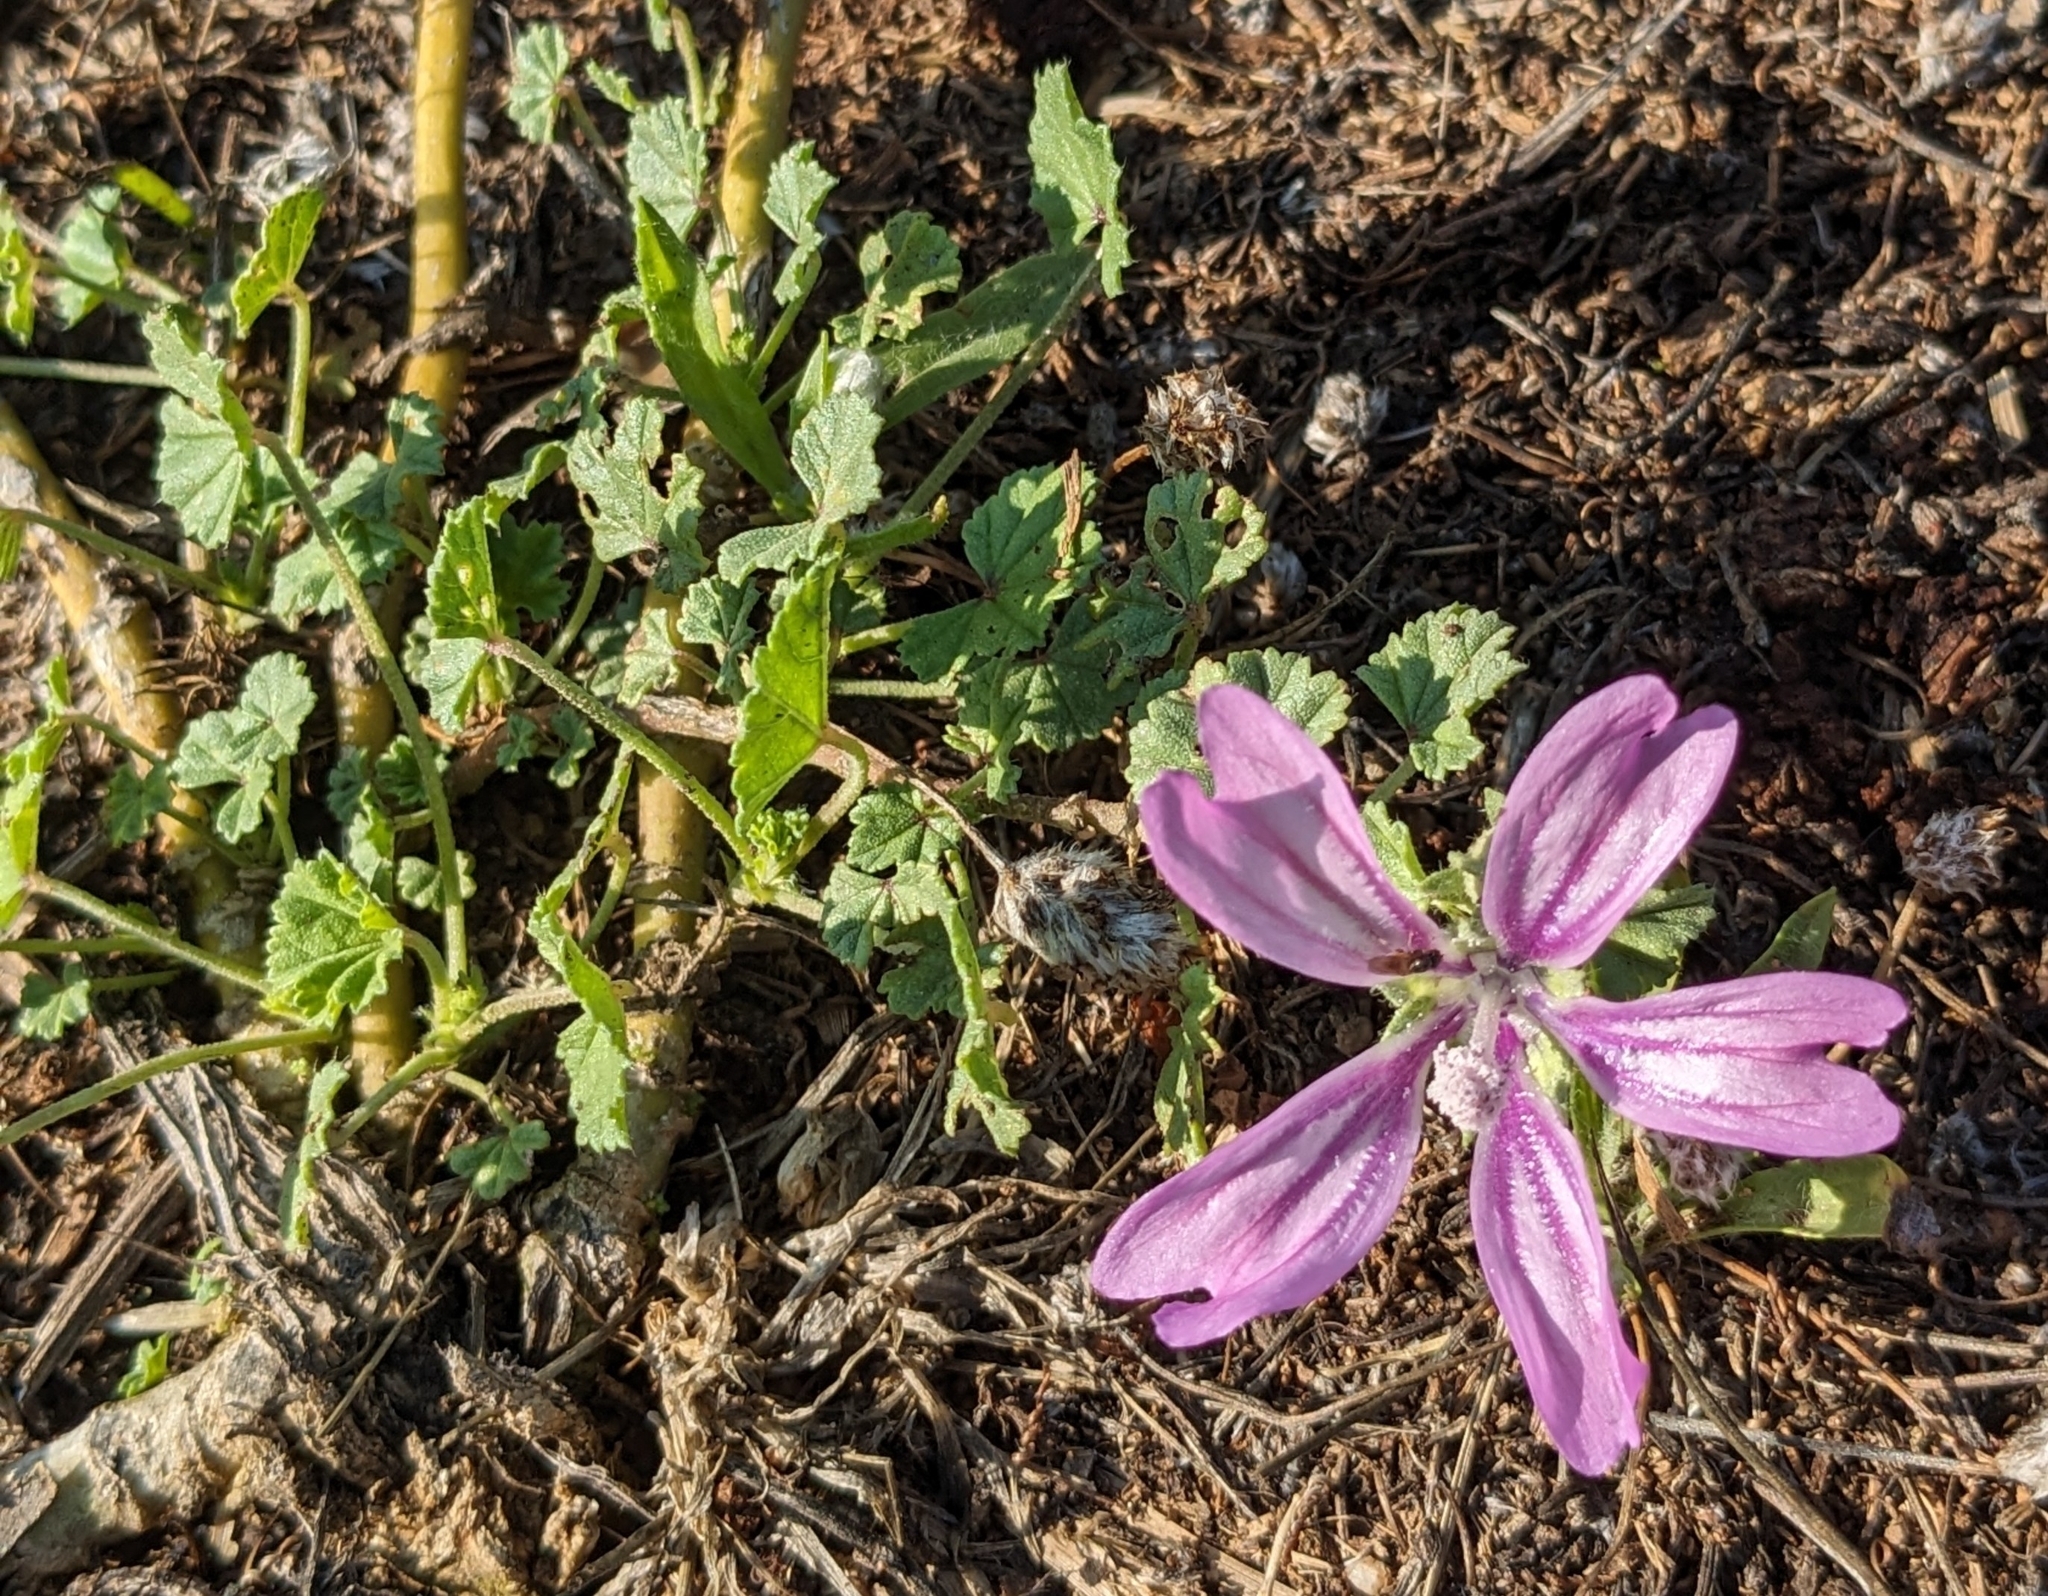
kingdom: Plantae
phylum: Tracheophyta
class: Magnoliopsida
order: Malvales
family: Malvaceae
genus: Malva
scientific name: Malva sylvestris
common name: Common mallow
